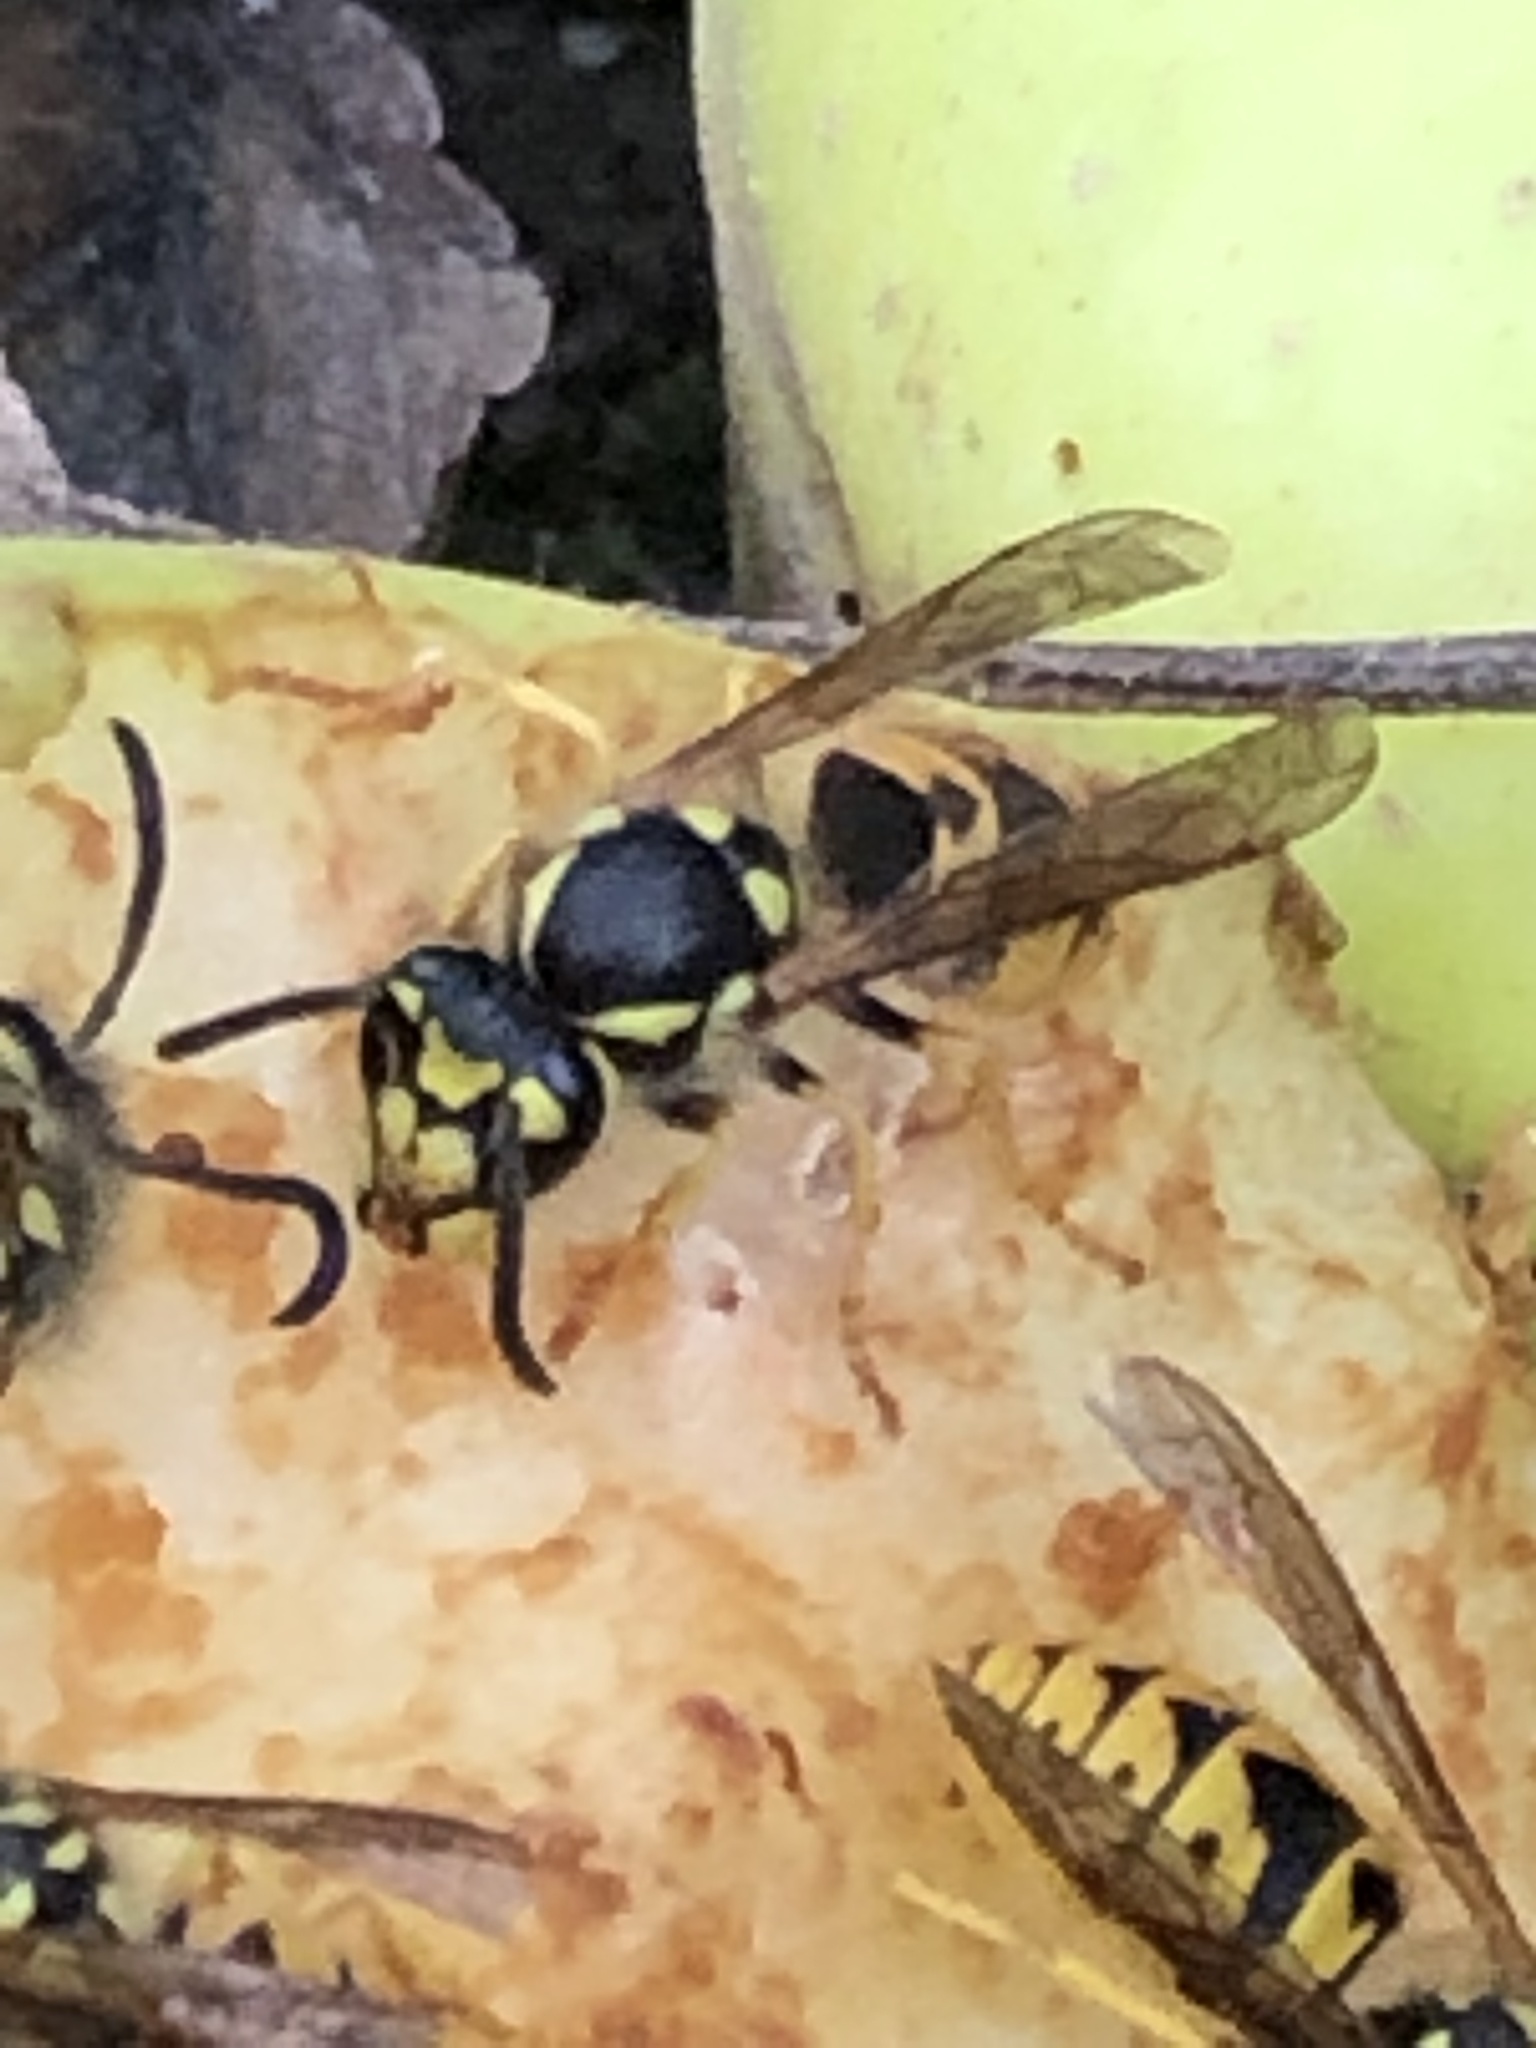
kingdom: Animalia
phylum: Arthropoda
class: Insecta
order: Hymenoptera
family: Vespidae
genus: Vespula
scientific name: Vespula germanica
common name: German wasp
